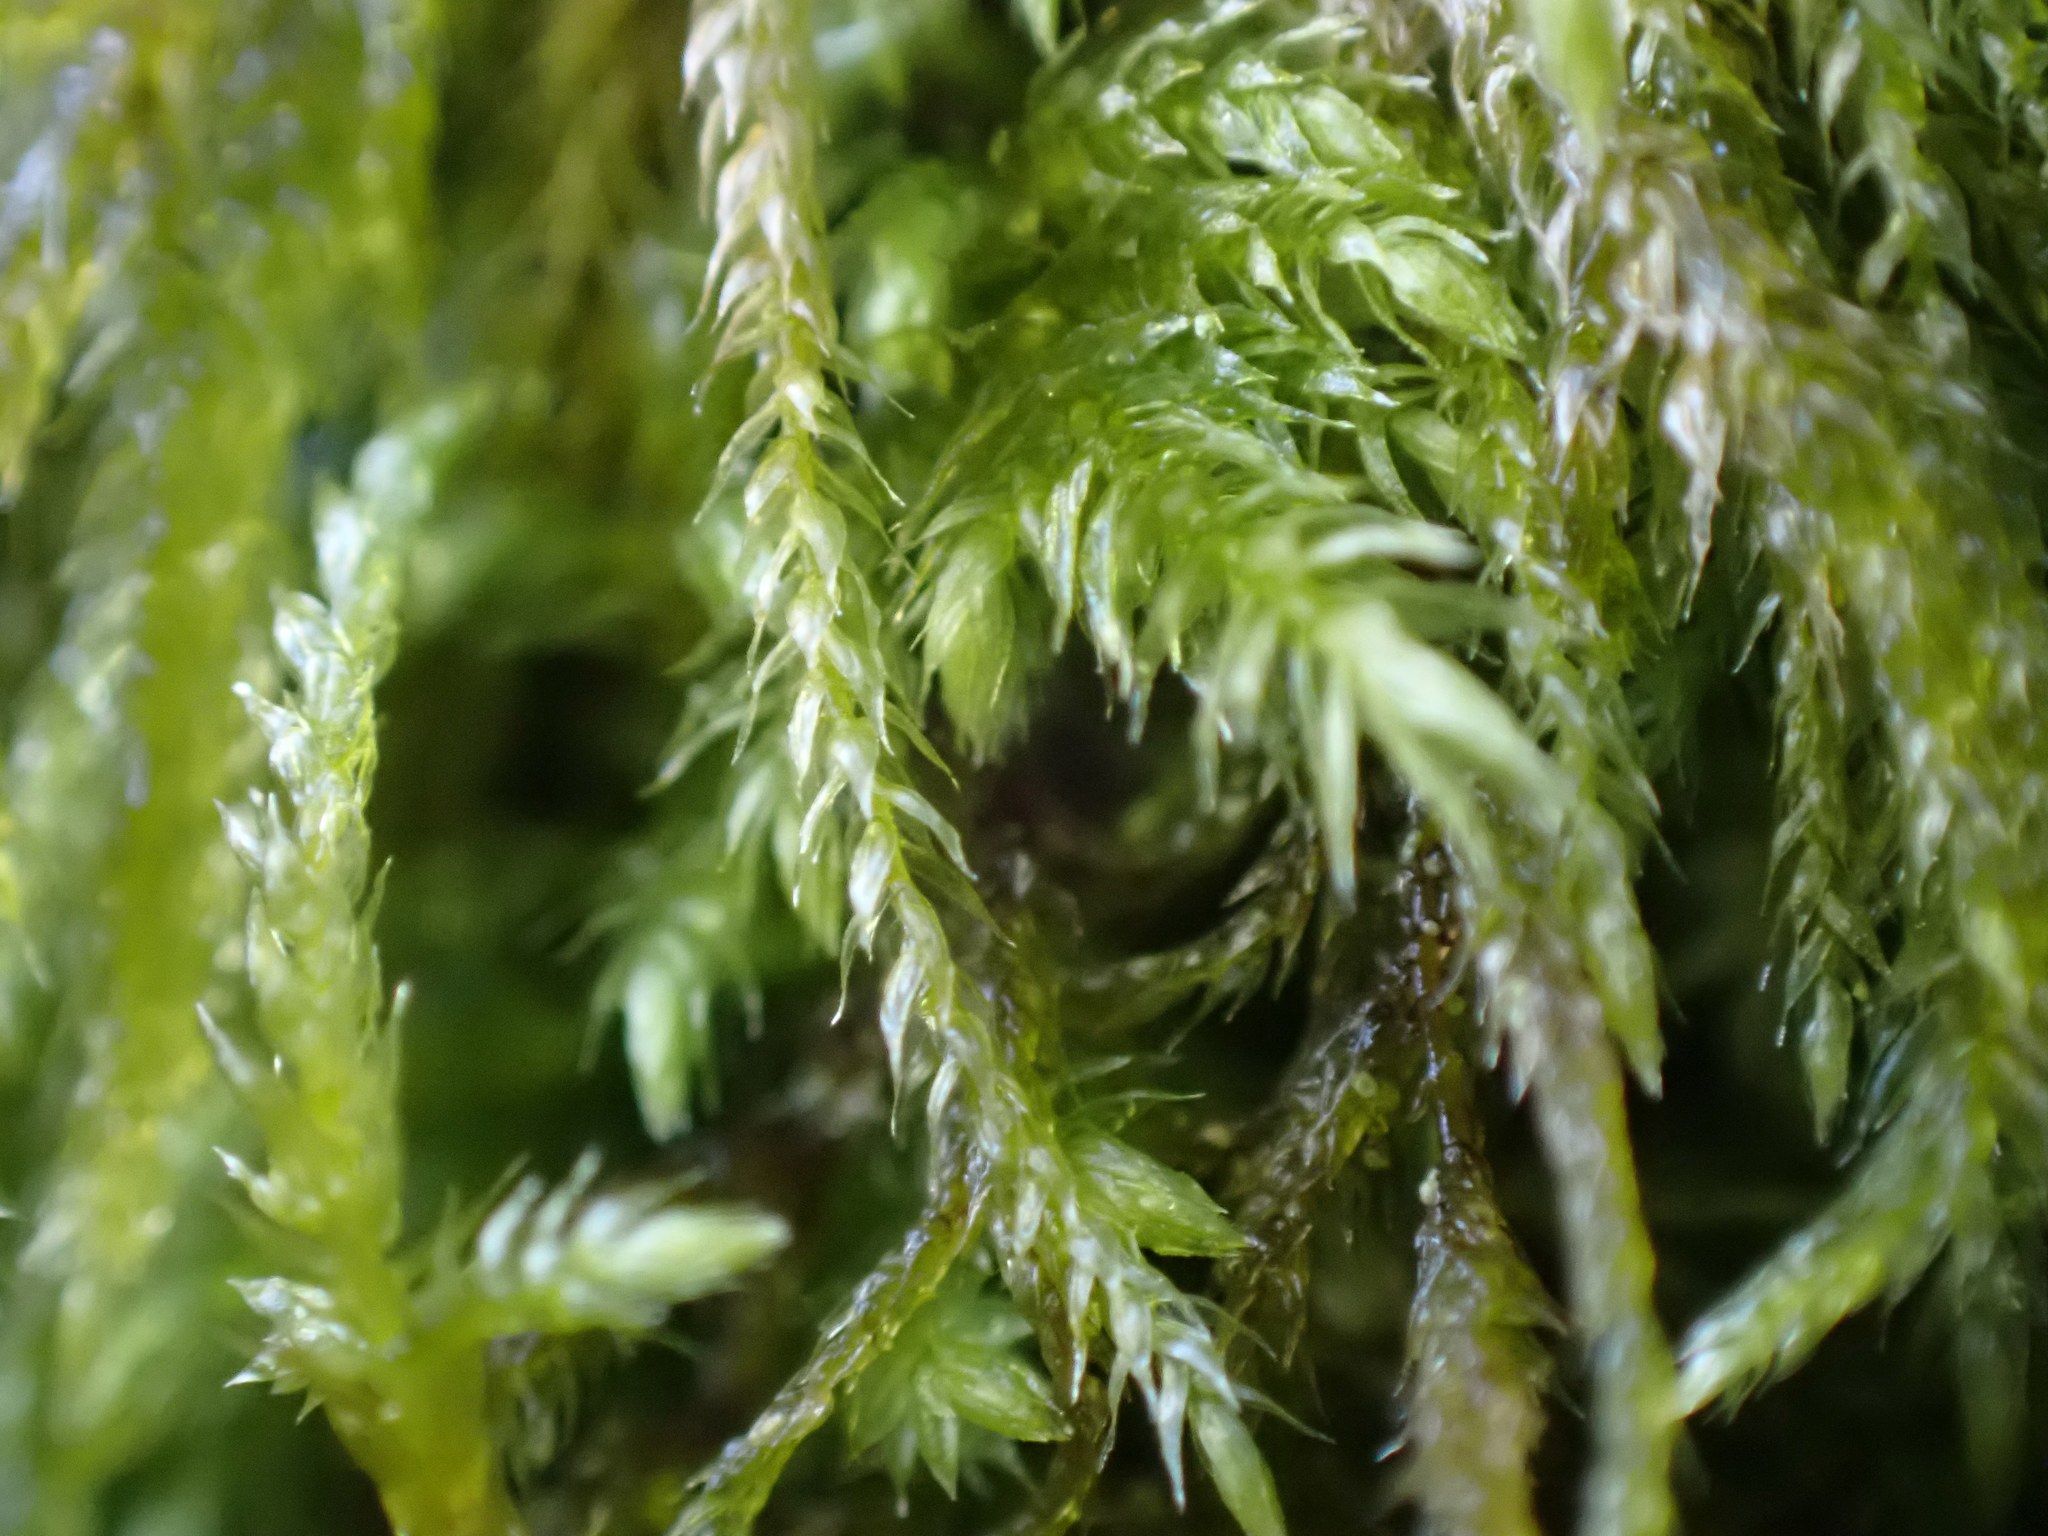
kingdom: Plantae
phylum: Bryophyta
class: Bryopsida
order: Hypnales
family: Lembophyllaceae
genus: Pseudisothecium
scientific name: Pseudisothecium stoloniferum
